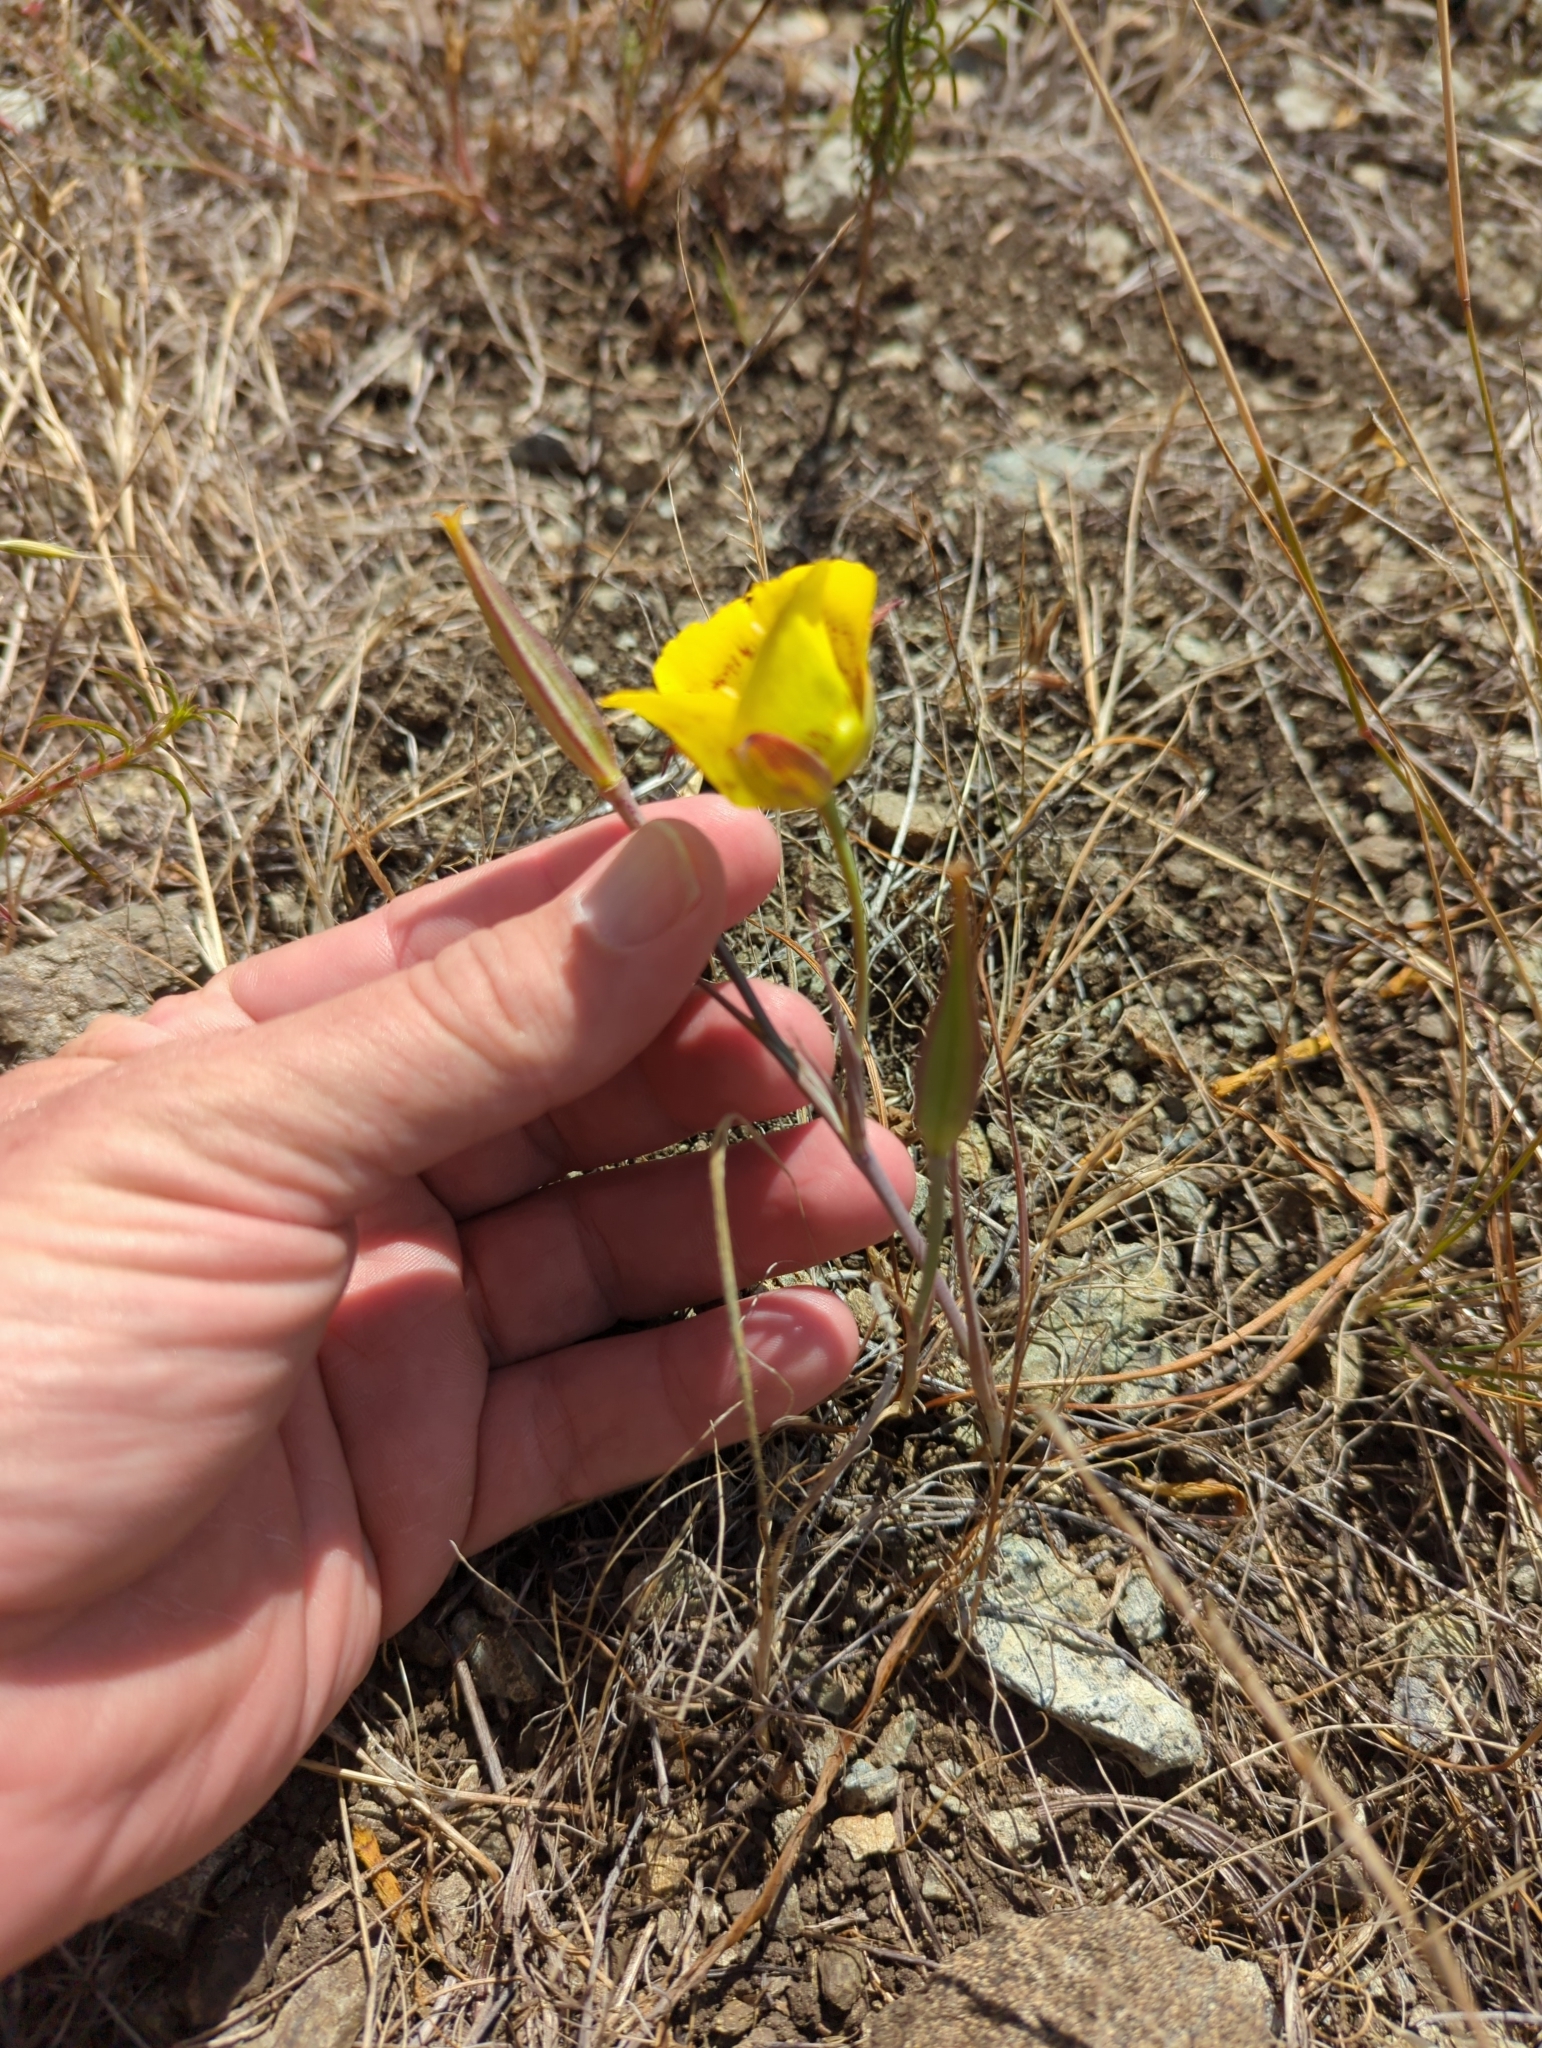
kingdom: Plantae
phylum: Tracheophyta
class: Liliopsida
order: Liliales
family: Liliaceae
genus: Calochortus
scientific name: Calochortus luteus
